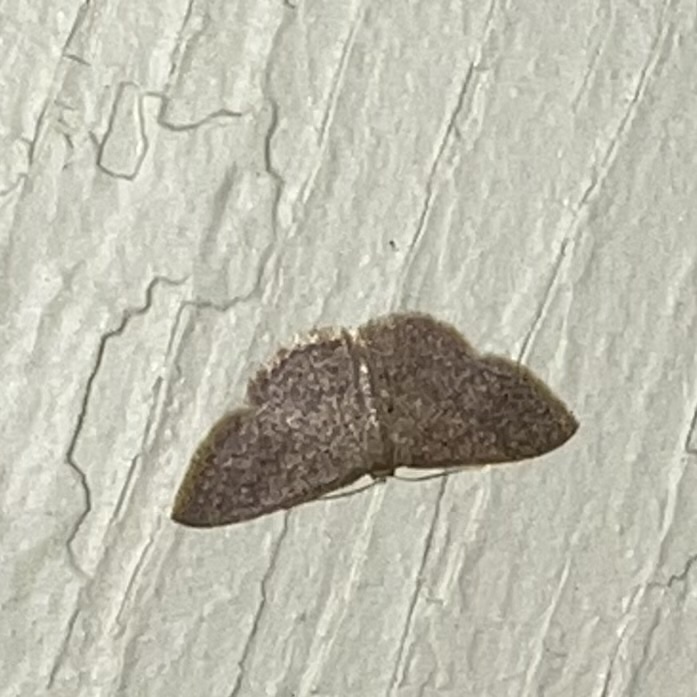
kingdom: Animalia
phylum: Arthropoda
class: Insecta
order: Lepidoptera
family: Geometridae
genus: Pleuroprucha
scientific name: Pleuroprucha insulsaria
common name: Common tan wave
